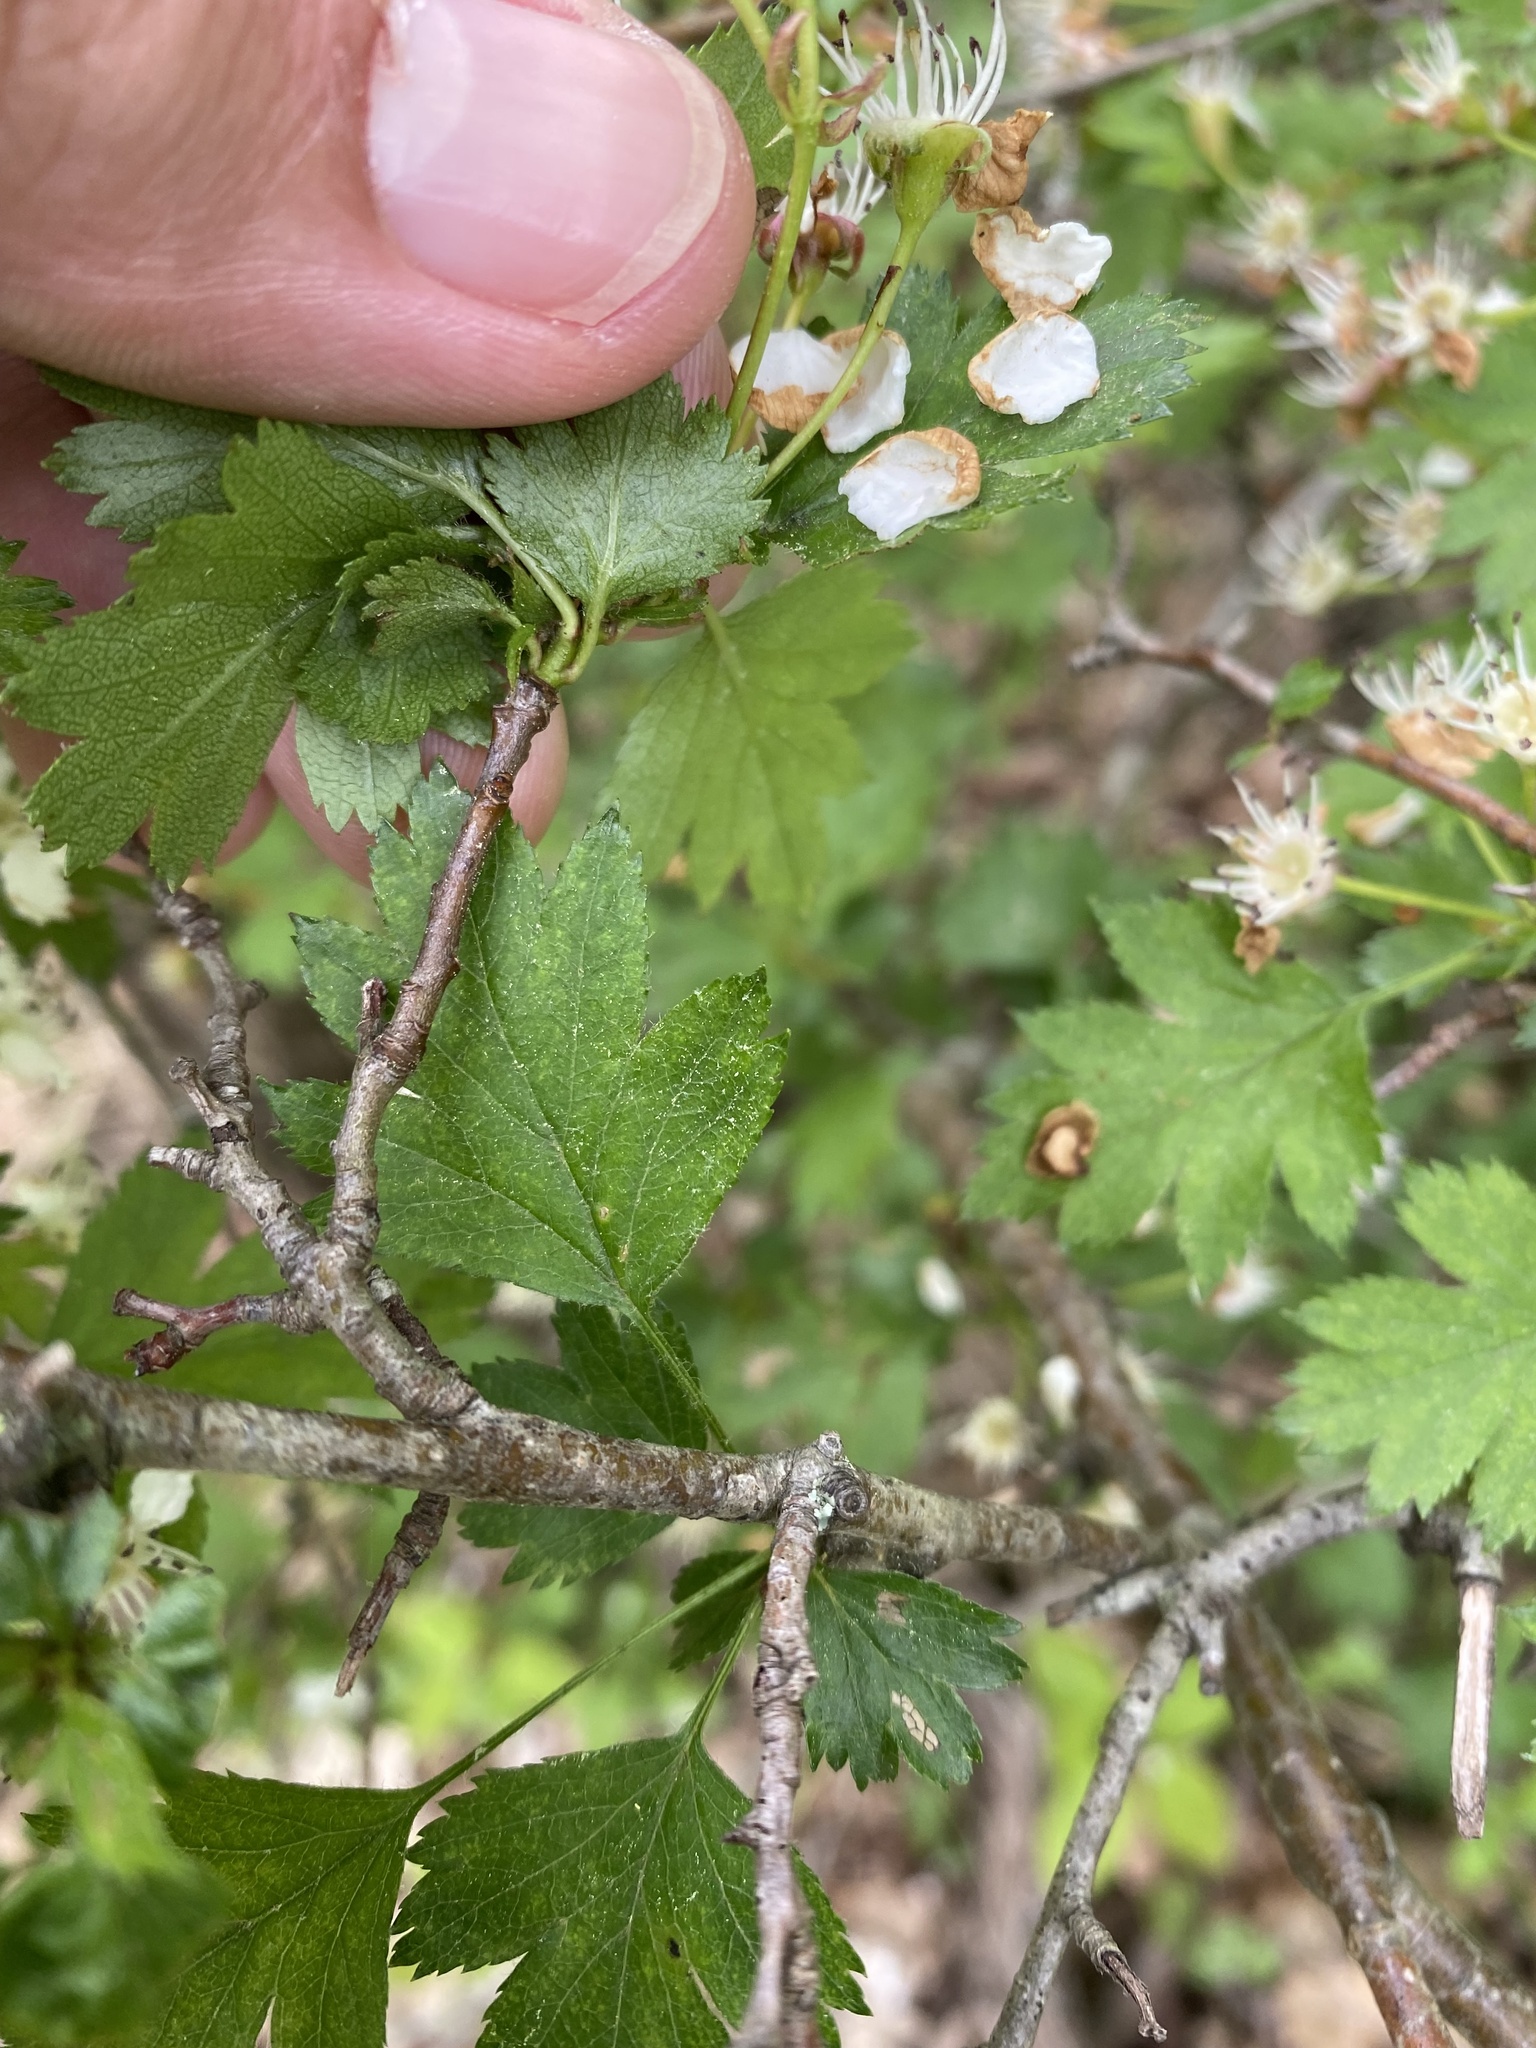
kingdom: Plantae
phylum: Tracheophyta
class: Magnoliopsida
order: Rosales
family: Rosaceae
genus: Crataegus
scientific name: Crataegus monogyna
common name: Hawthorn
